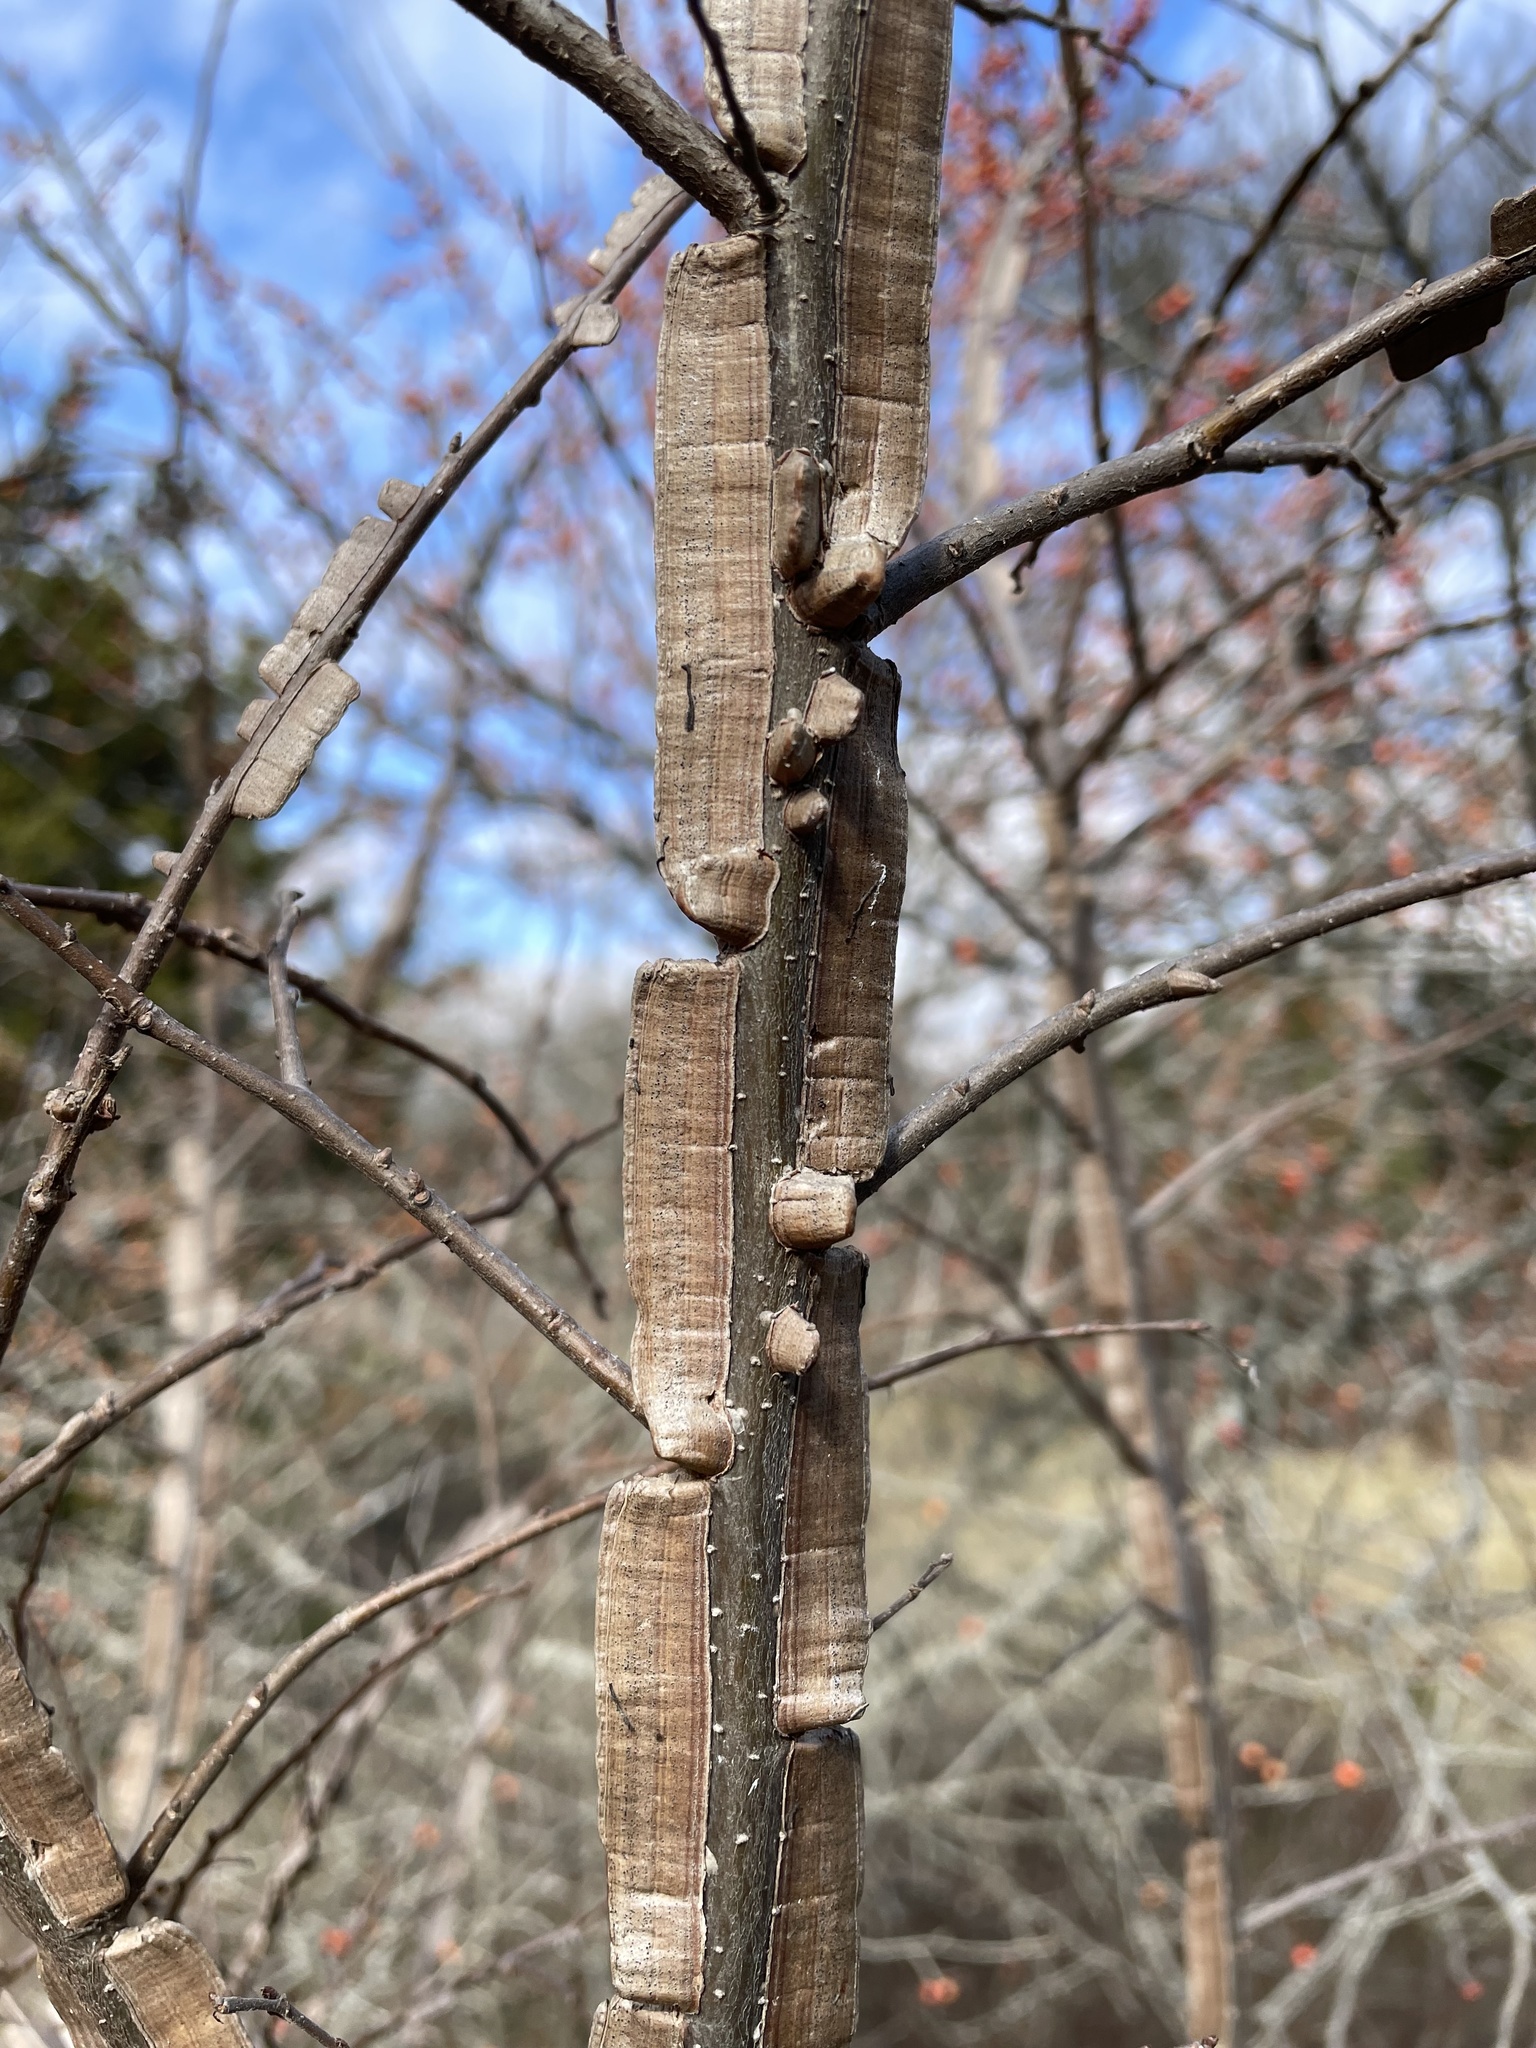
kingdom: Plantae
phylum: Tracheophyta
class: Magnoliopsida
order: Rosales
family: Ulmaceae
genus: Ulmus
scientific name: Ulmus crassifolia
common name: Basket elm
